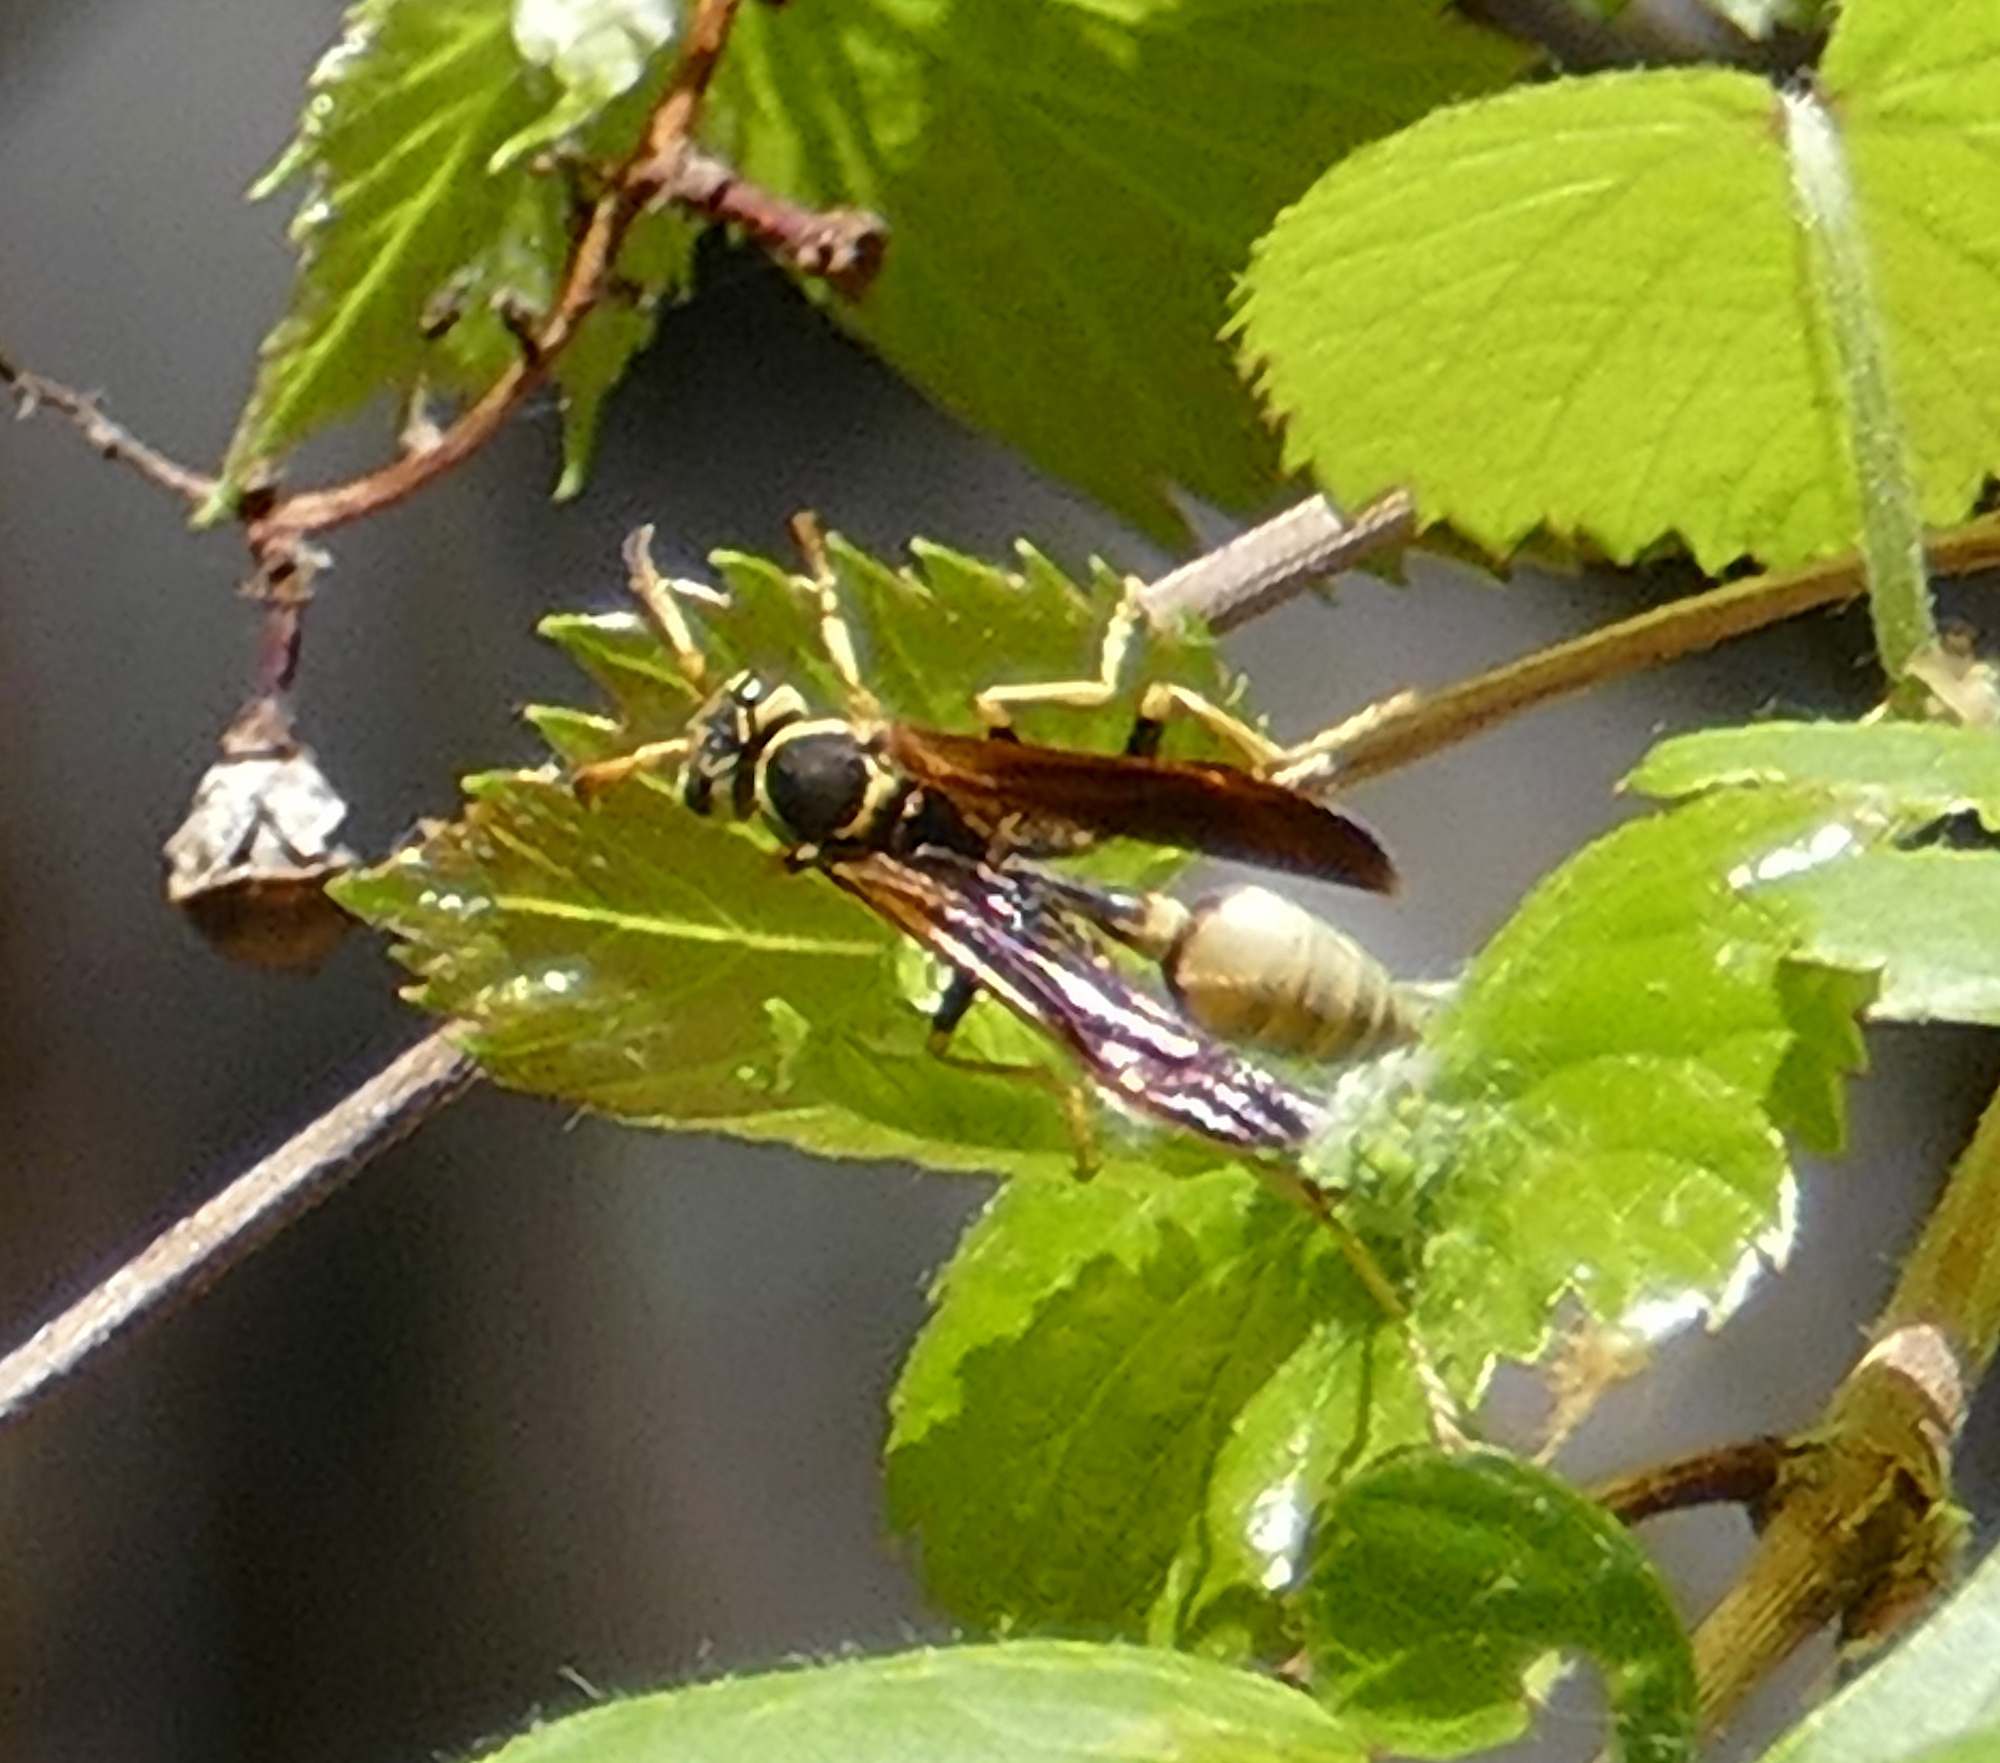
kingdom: Animalia
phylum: Arthropoda
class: Insecta
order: Hymenoptera
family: Vespidae
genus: Mischocyttarus
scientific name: Mischocyttarus navajo
